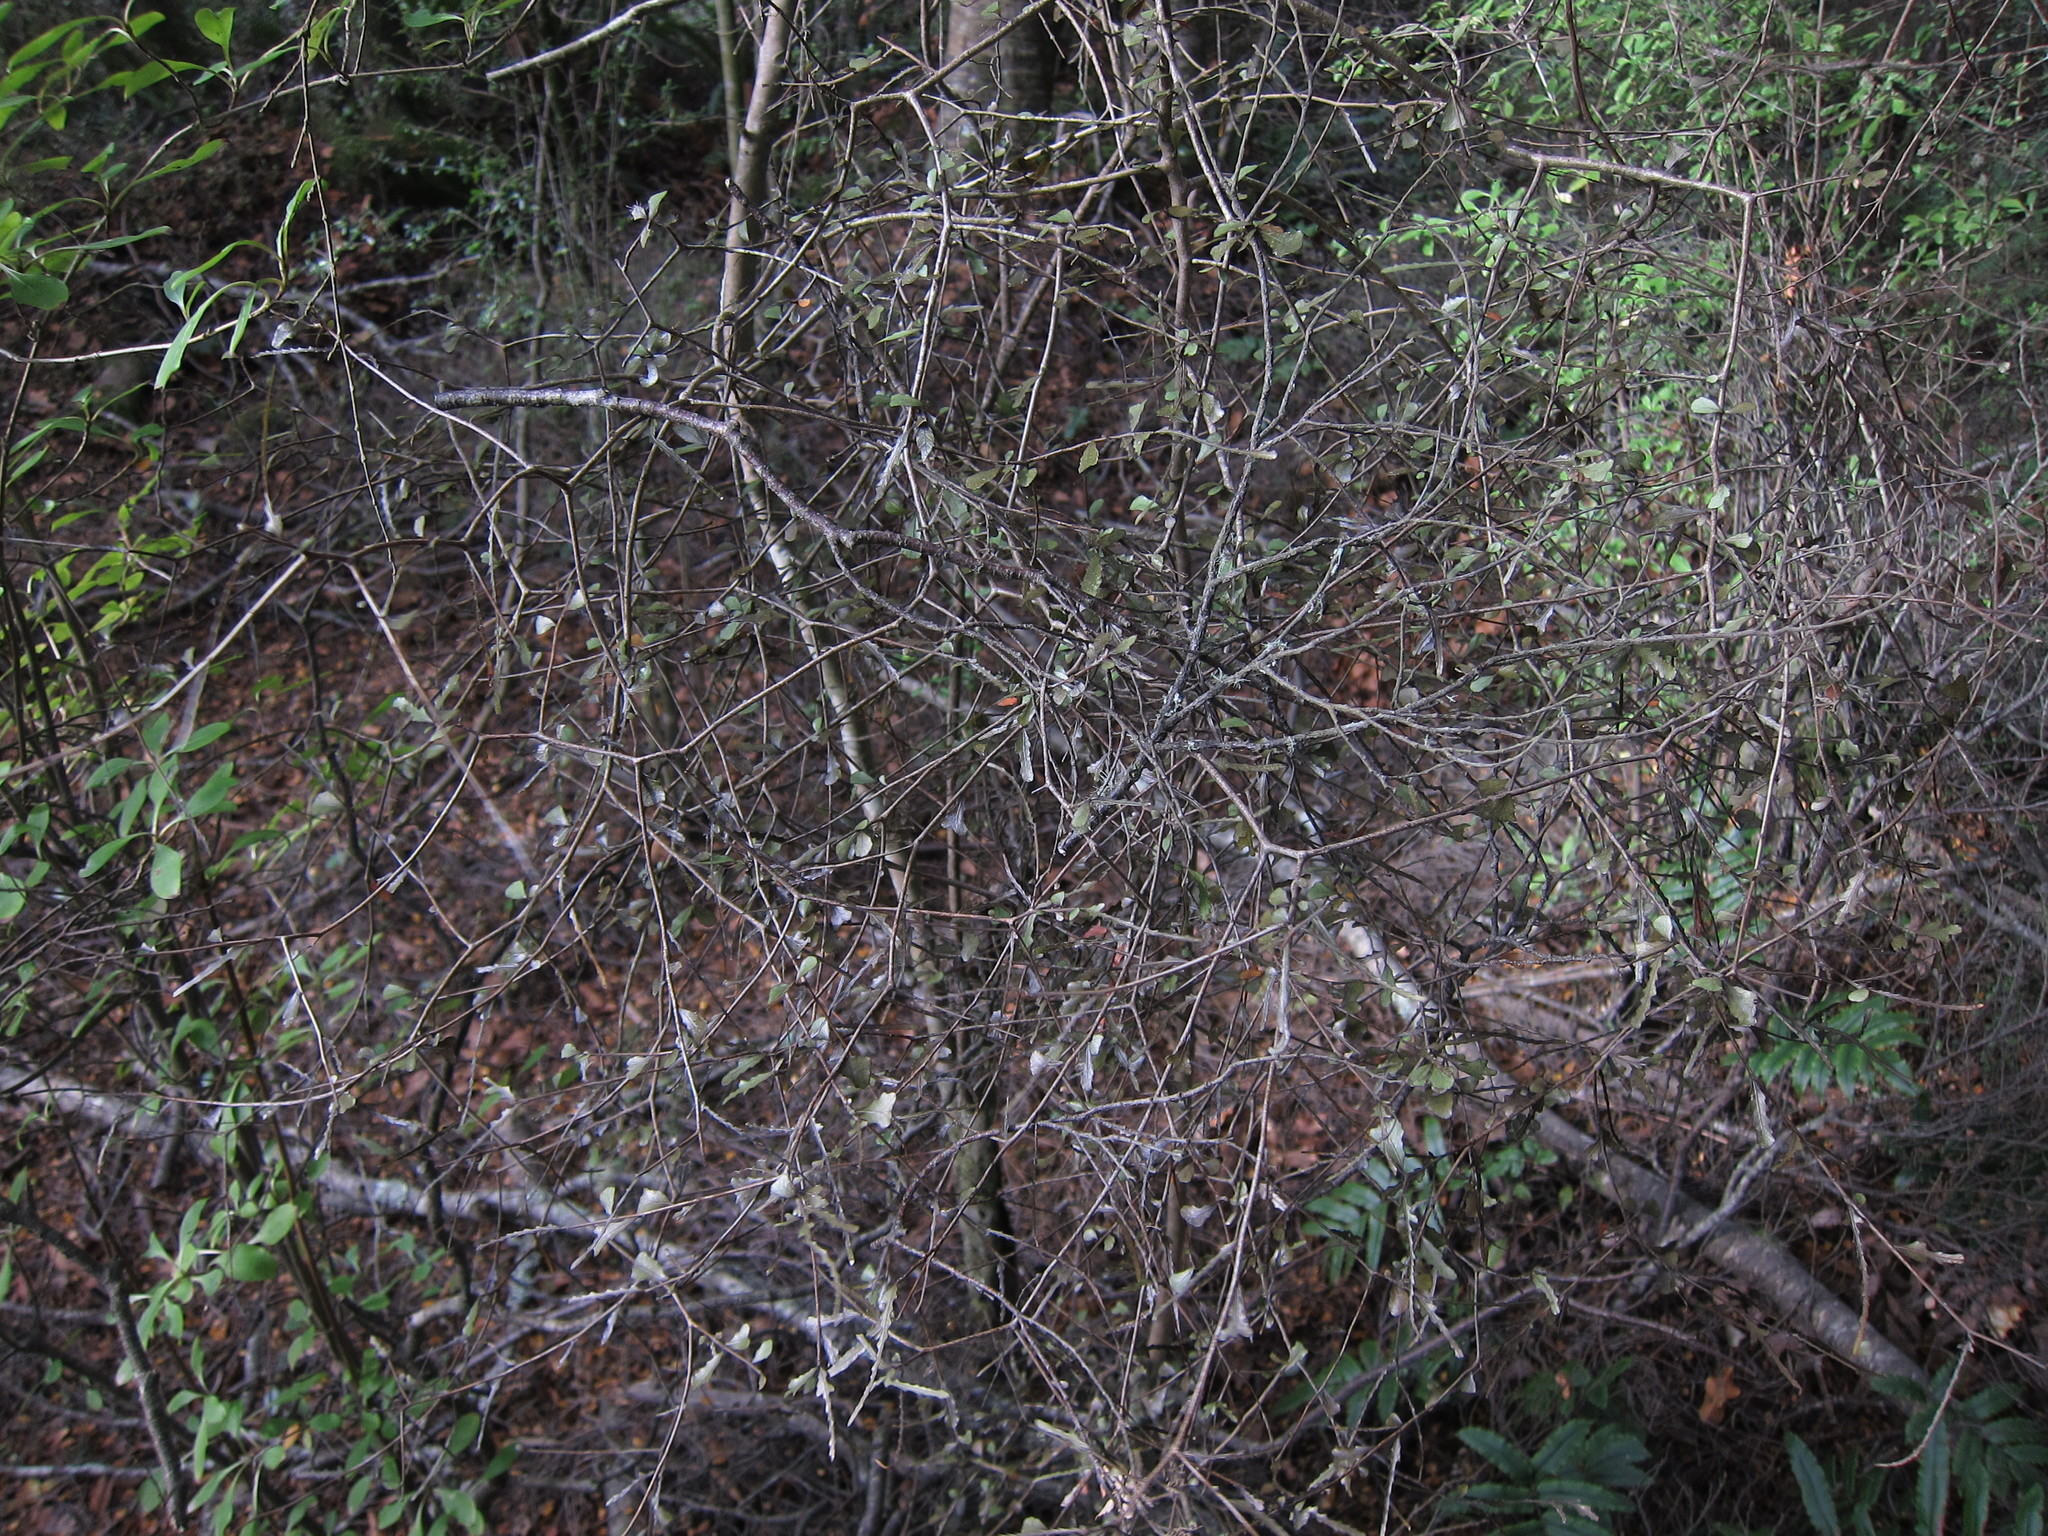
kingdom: Plantae
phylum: Tracheophyta
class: Magnoliopsida
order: Oxalidales
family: Elaeocarpaceae
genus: Elaeocarpus
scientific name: Elaeocarpus hookerianus
